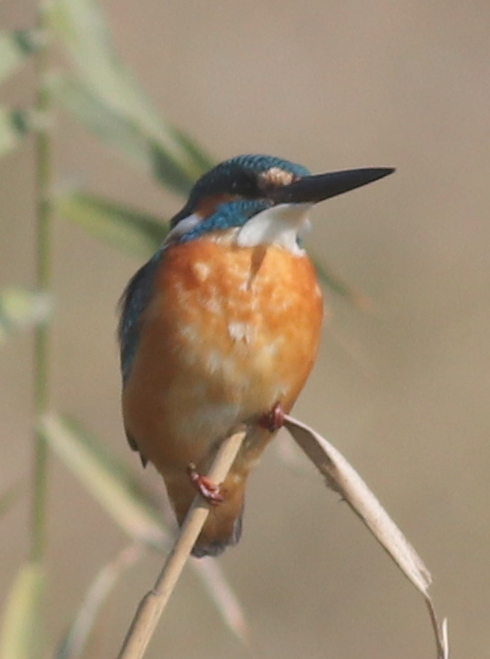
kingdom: Animalia
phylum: Chordata
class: Aves
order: Coraciiformes
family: Alcedinidae
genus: Alcedo
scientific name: Alcedo atthis
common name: Common kingfisher
